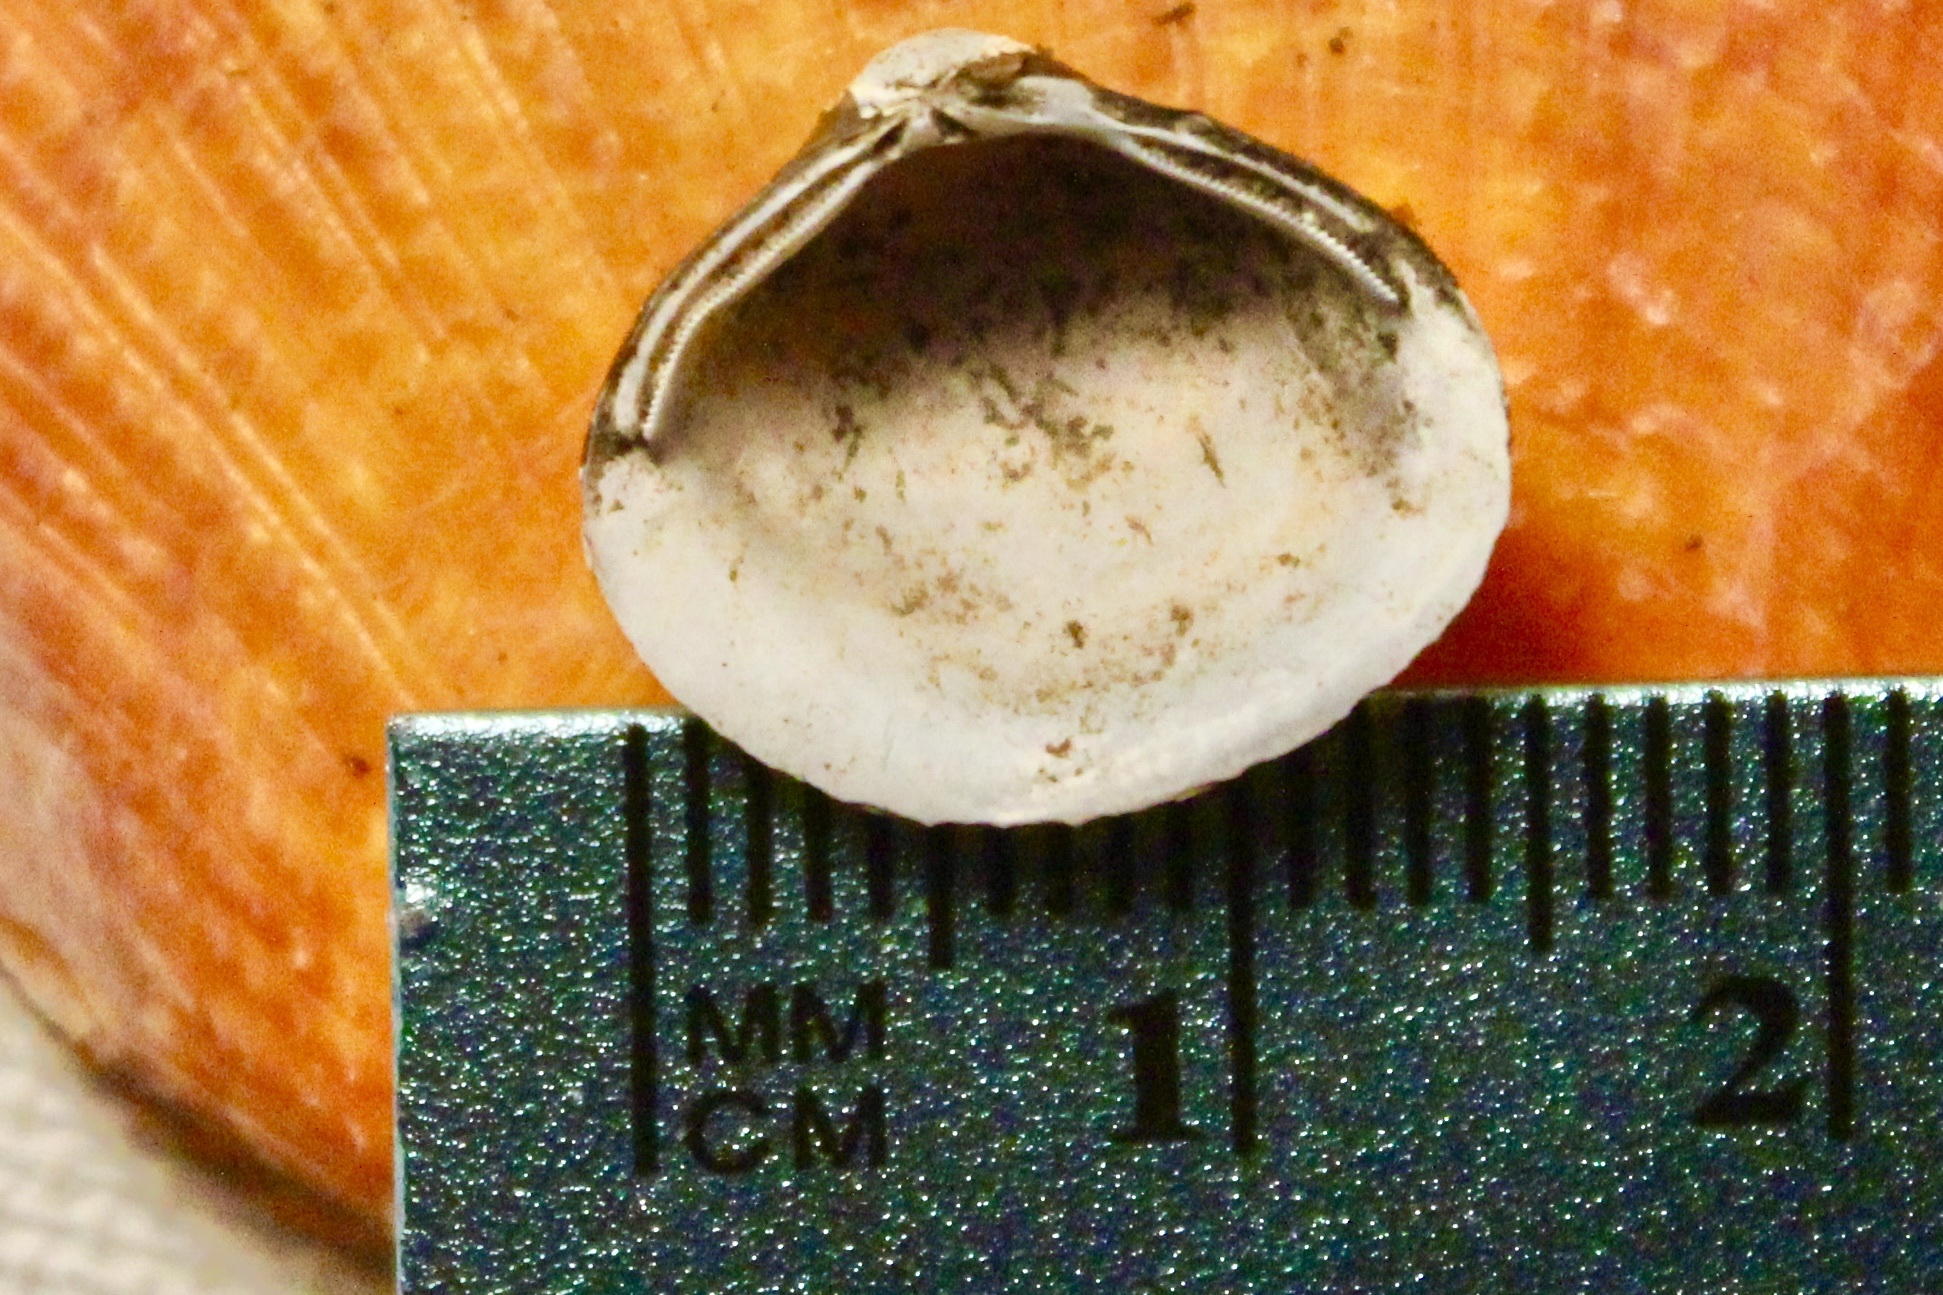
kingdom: Animalia
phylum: Mollusca
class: Bivalvia
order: Venerida
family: Cyrenidae
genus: Corbicula
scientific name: Corbicula fluminea
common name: Asian clam
